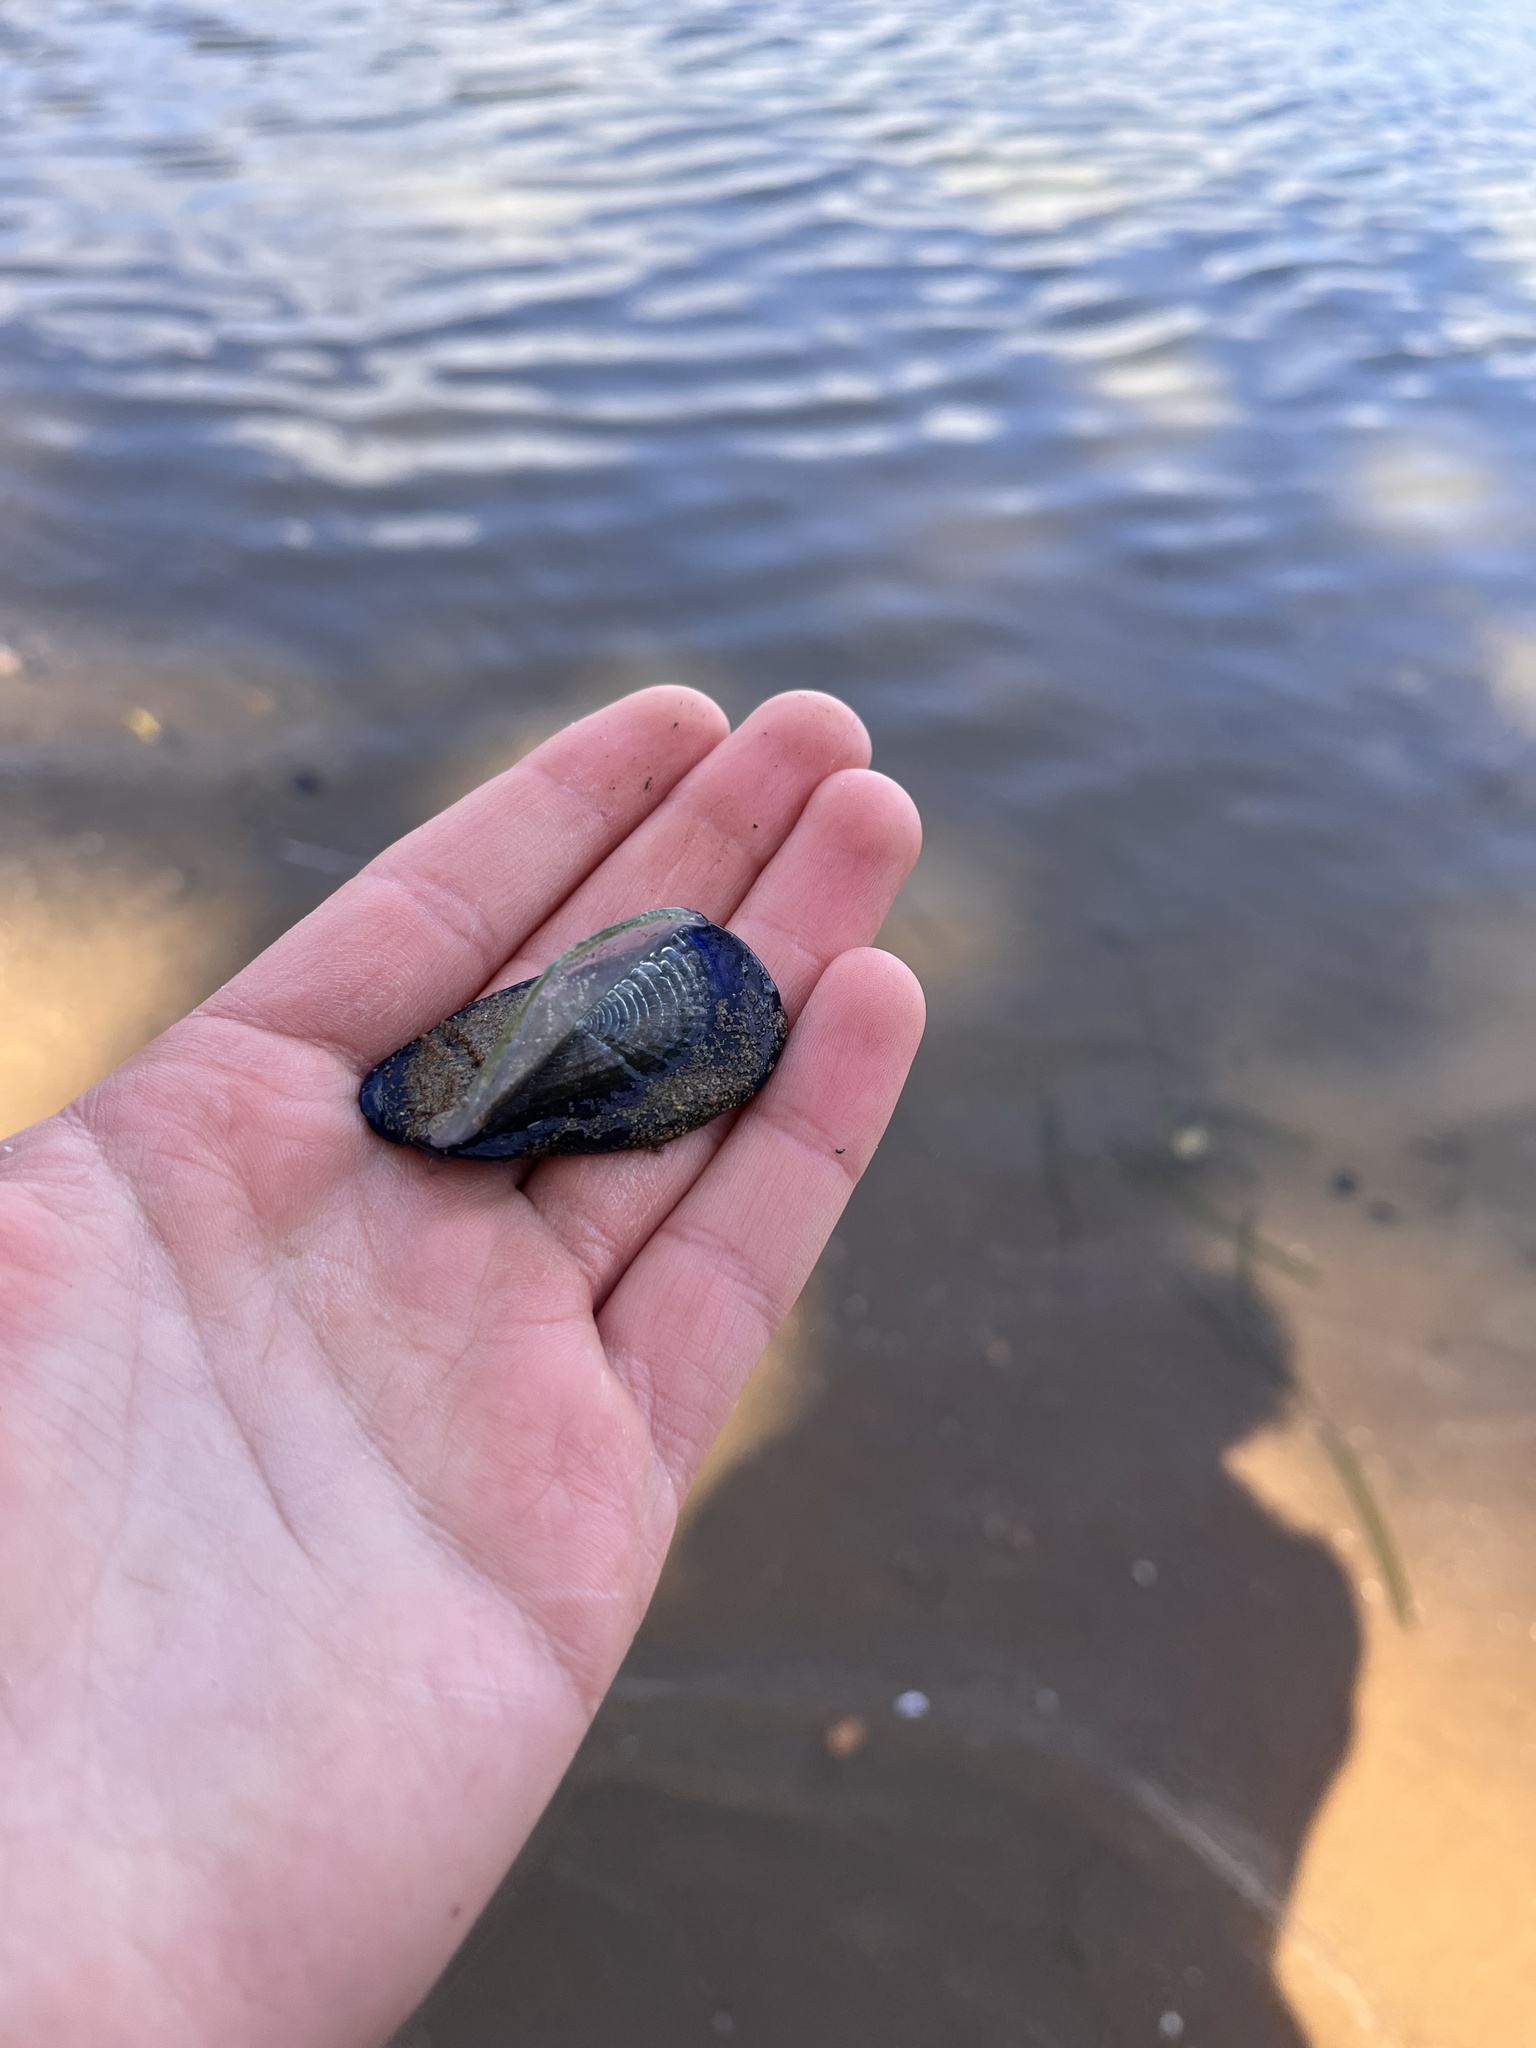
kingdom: Animalia
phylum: Cnidaria
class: Hydrozoa
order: Anthoathecata
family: Porpitidae
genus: Velella
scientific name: Velella velella
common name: By-the-wind-sailor
